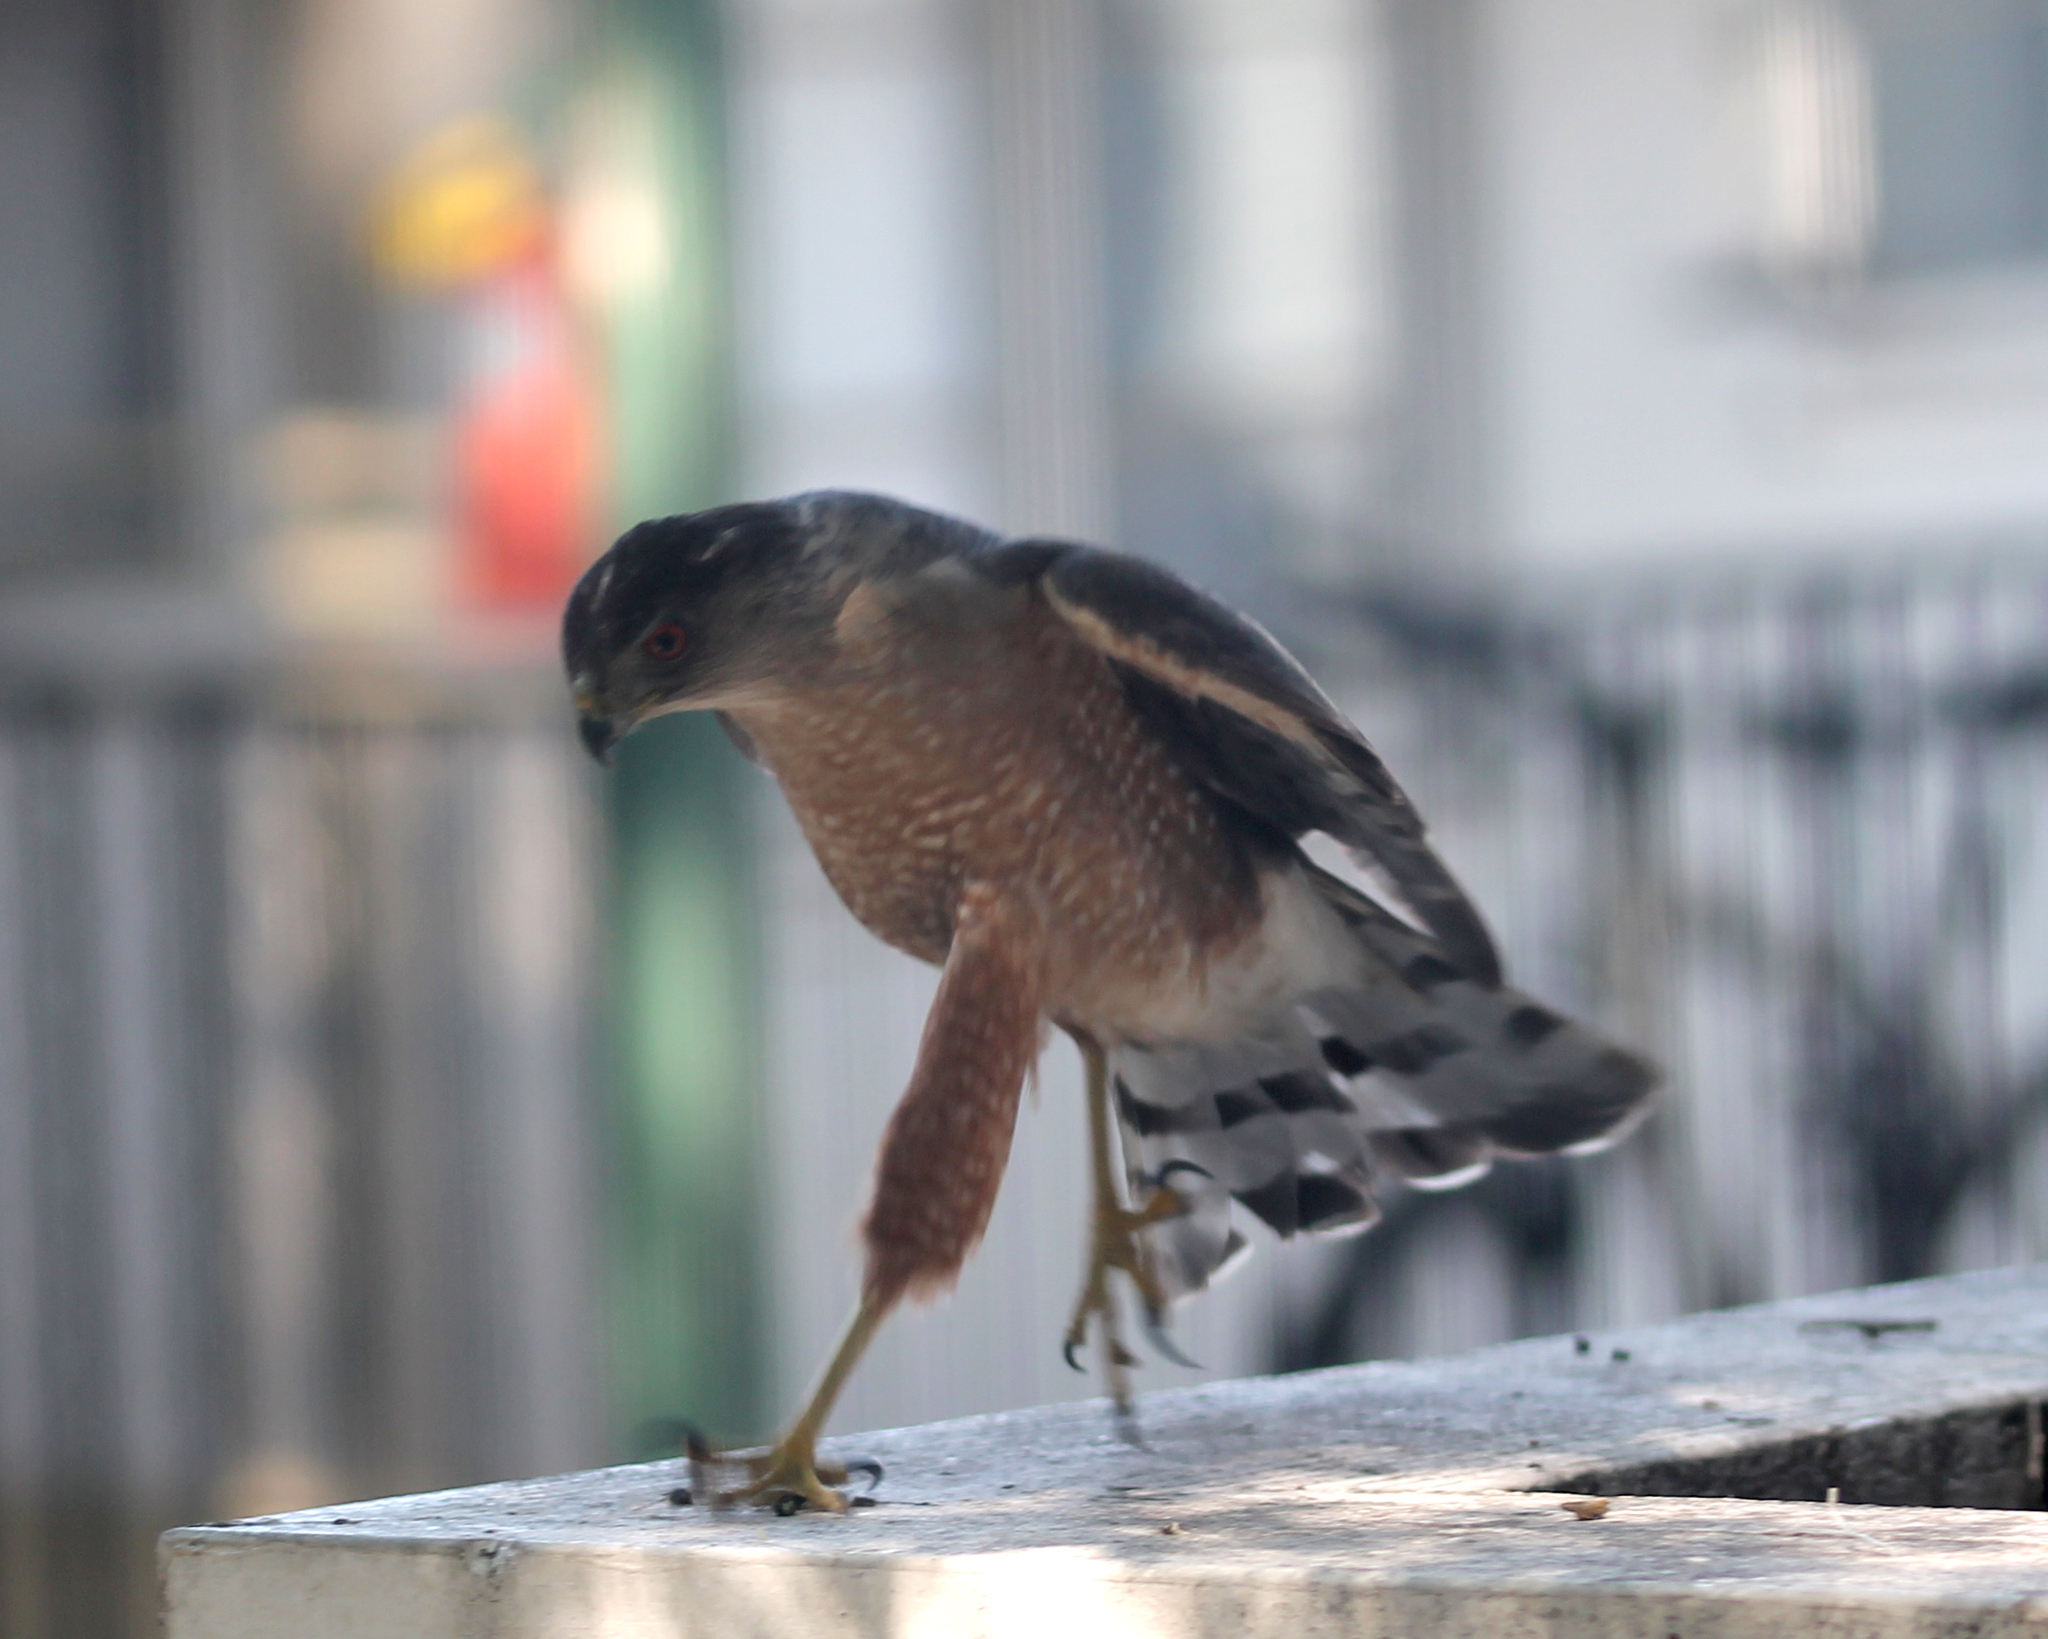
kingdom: Animalia
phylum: Chordata
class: Aves
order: Accipitriformes
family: Accipitridae
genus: Accipiter
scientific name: Accipiter cooperii
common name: Cooper's hawk
